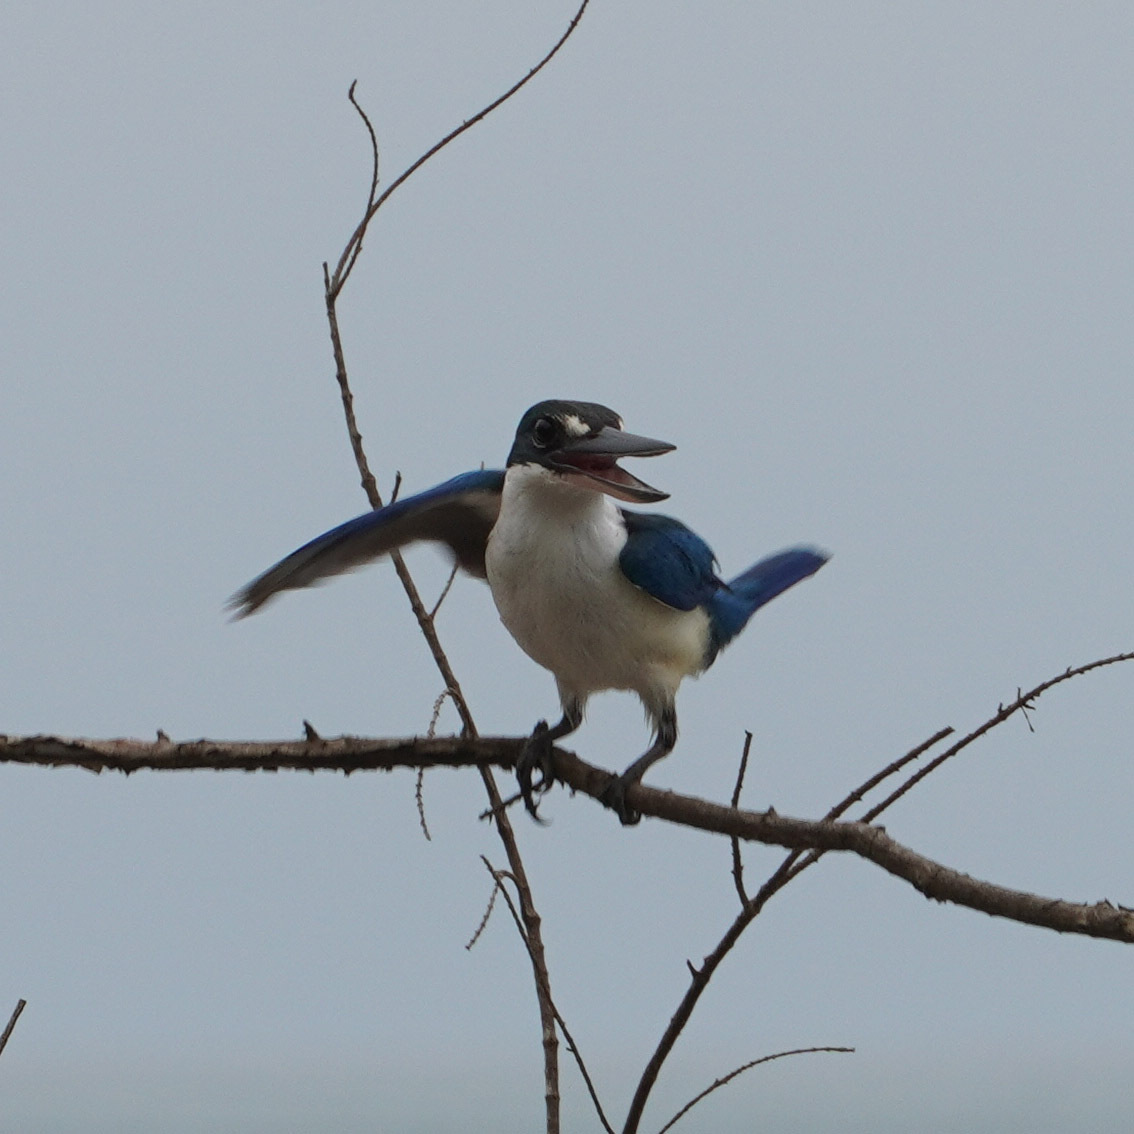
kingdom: Animalia
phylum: Chordata
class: Aves
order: Coraciiformes
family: Alcedinidae
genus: Todiramphus
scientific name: Todiramphus chloris
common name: Collared kingfisher
